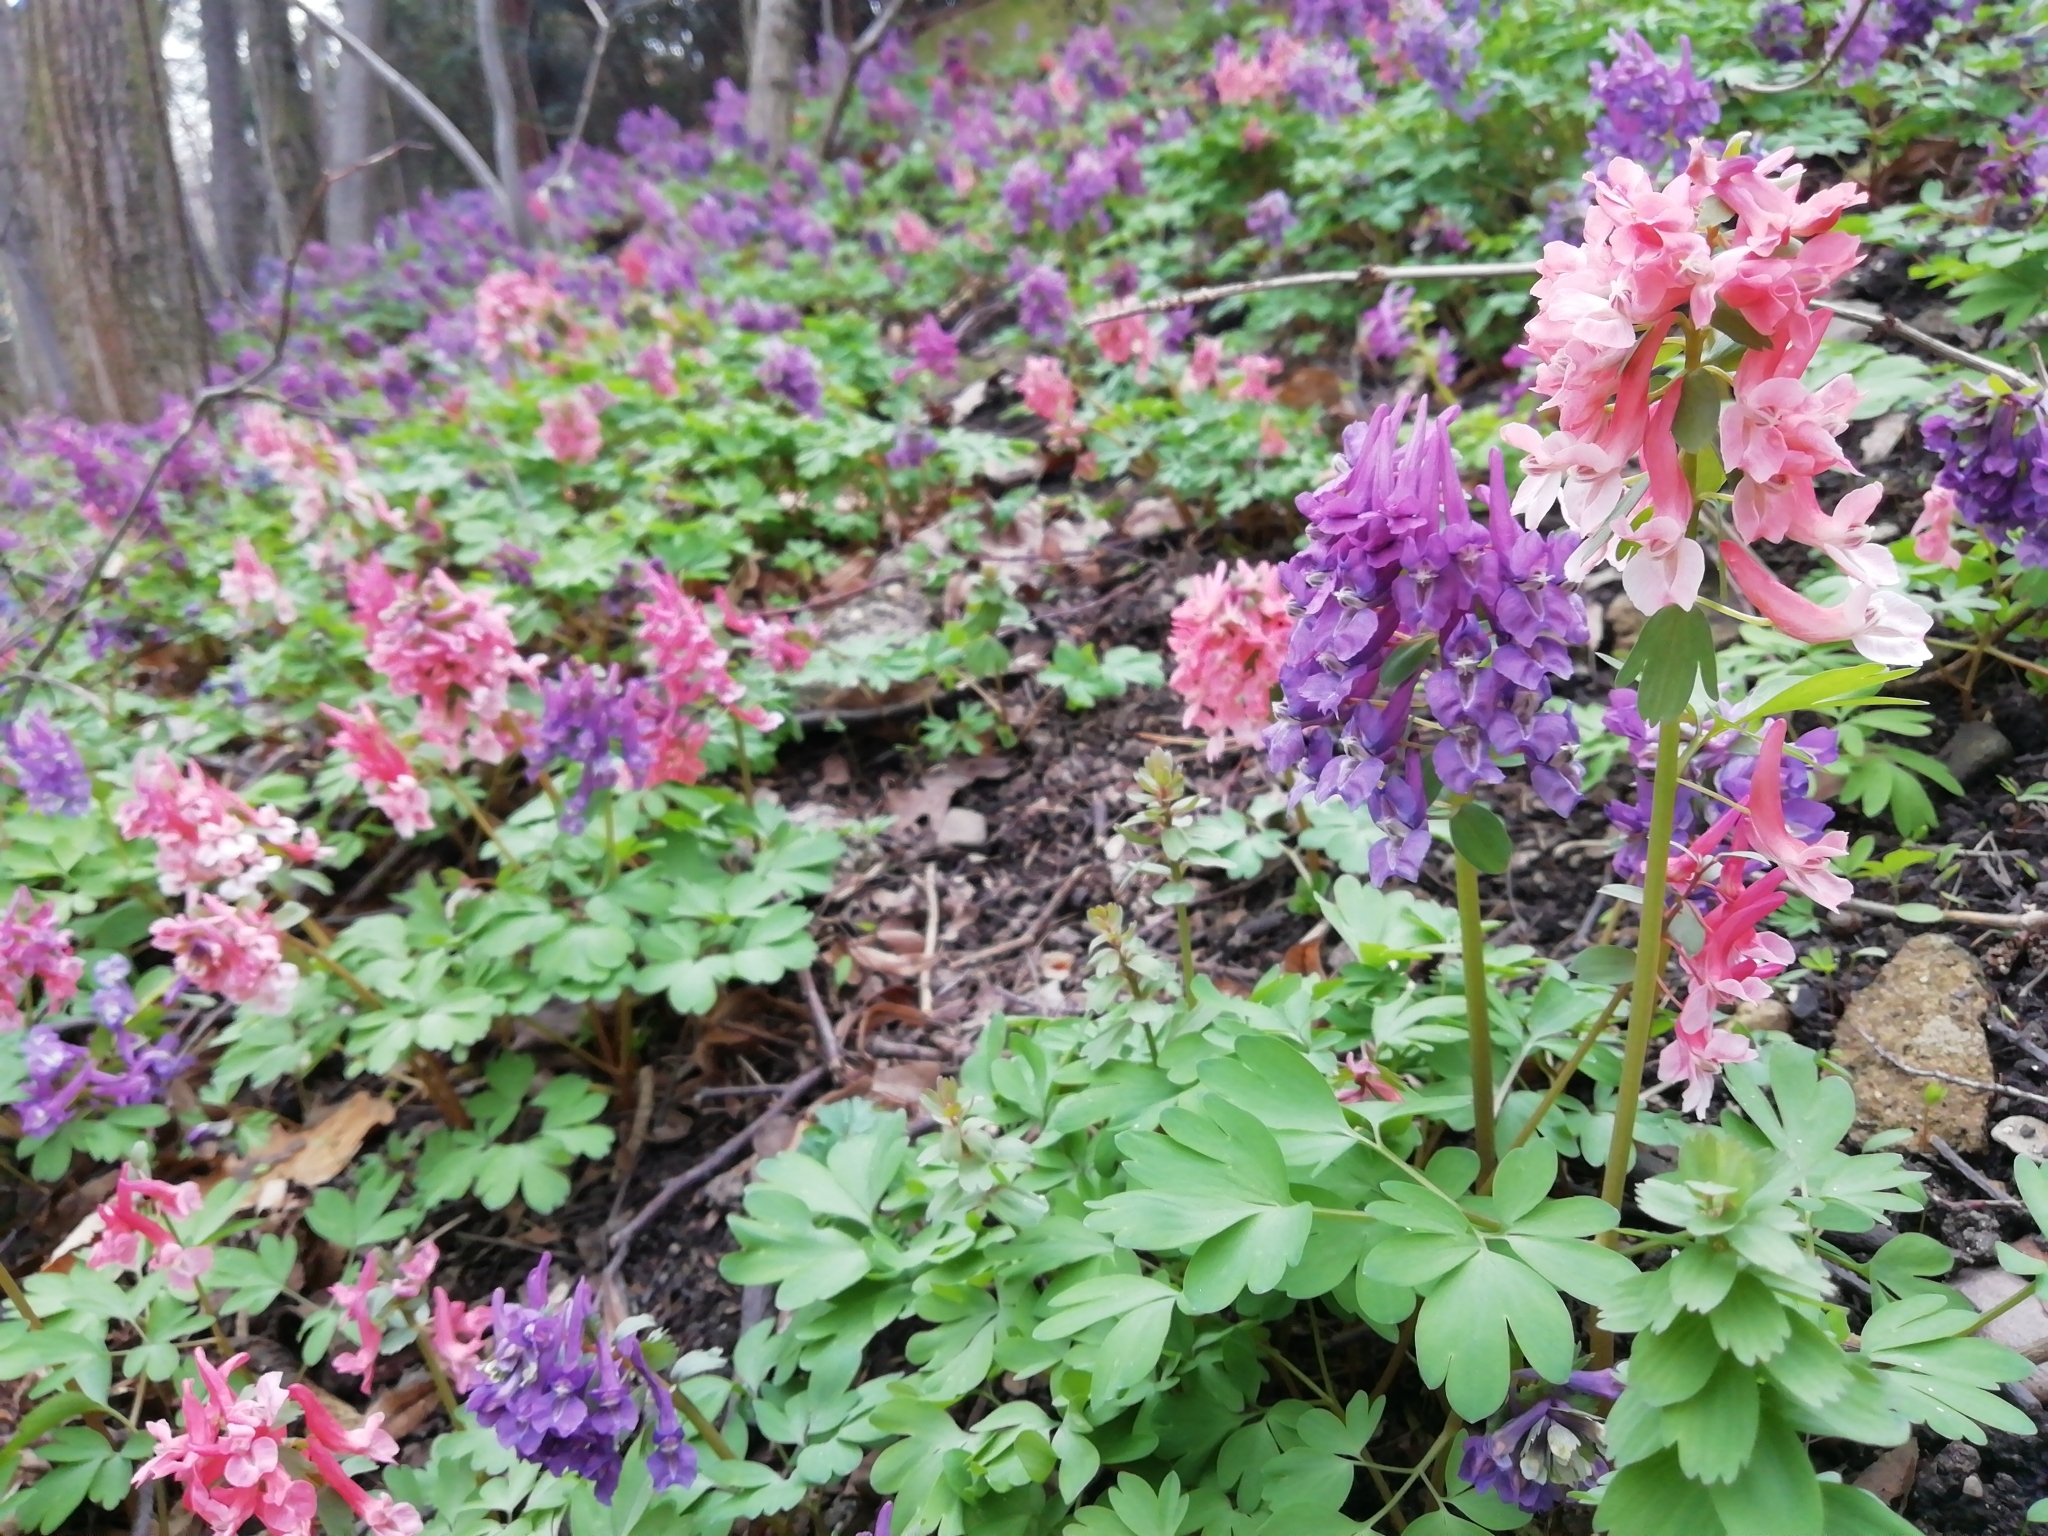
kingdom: Plantae
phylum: Tracheophyta
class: Magnoliopsida
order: Ranunculales
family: Papaveraceae
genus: Corydalis
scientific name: Corydalis solida
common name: Bird-in-a-bush
